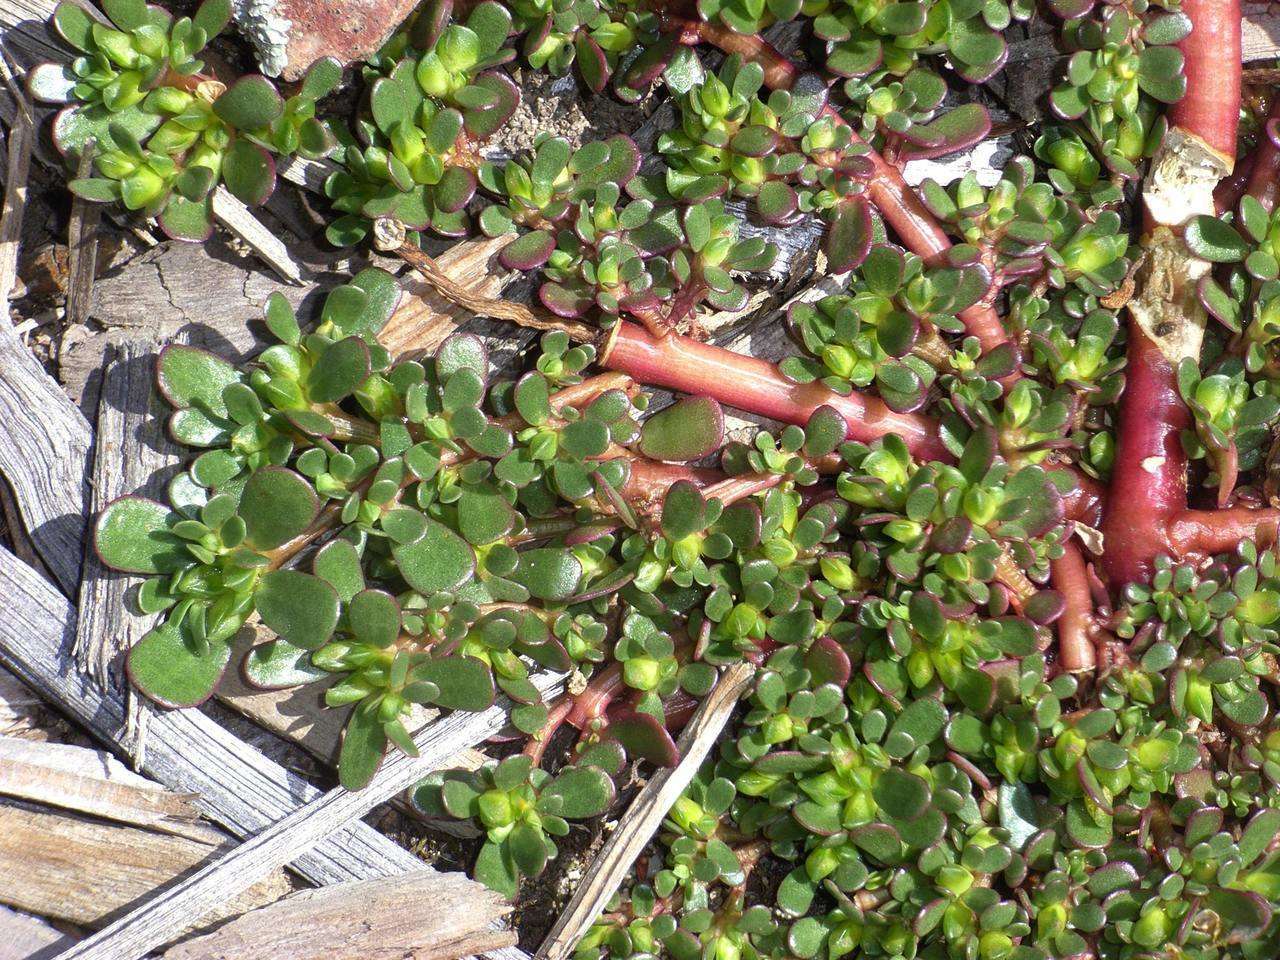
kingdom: Plantae
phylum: Tracheophyta
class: Magnoliopsida
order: Caryophyllales
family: Portulacaceae
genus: Portulaca
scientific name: Portulaca oleracea
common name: Common purslane
